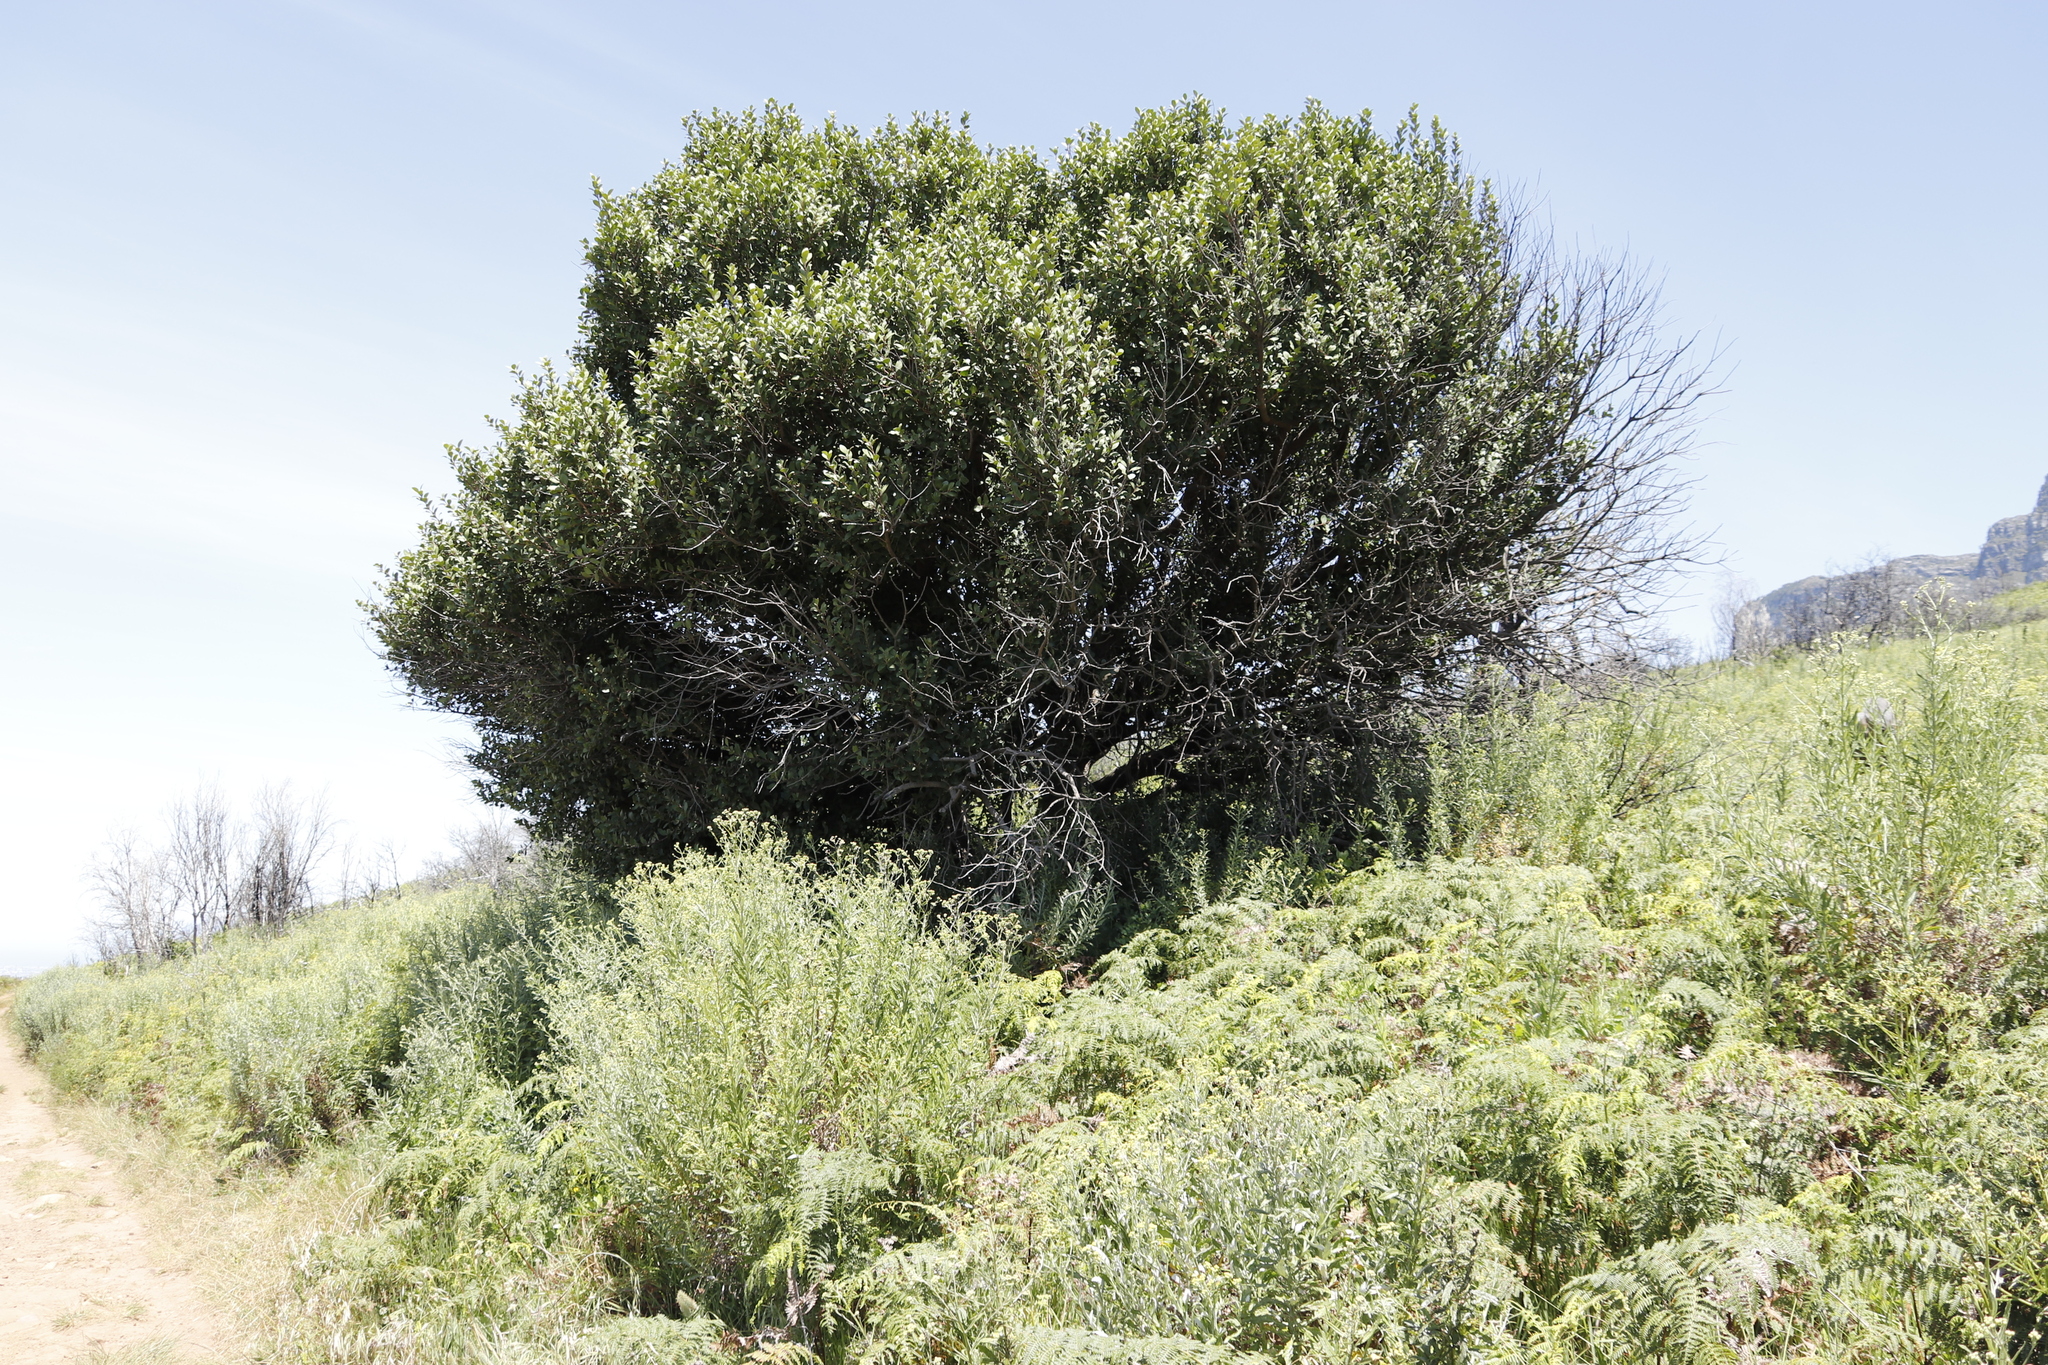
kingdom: Plantae
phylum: Tracheophyta
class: Magnoliopsida
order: Celastrales
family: Celastraceae
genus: Pterocelastrus
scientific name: Pterocelastrus tricuspidatus
